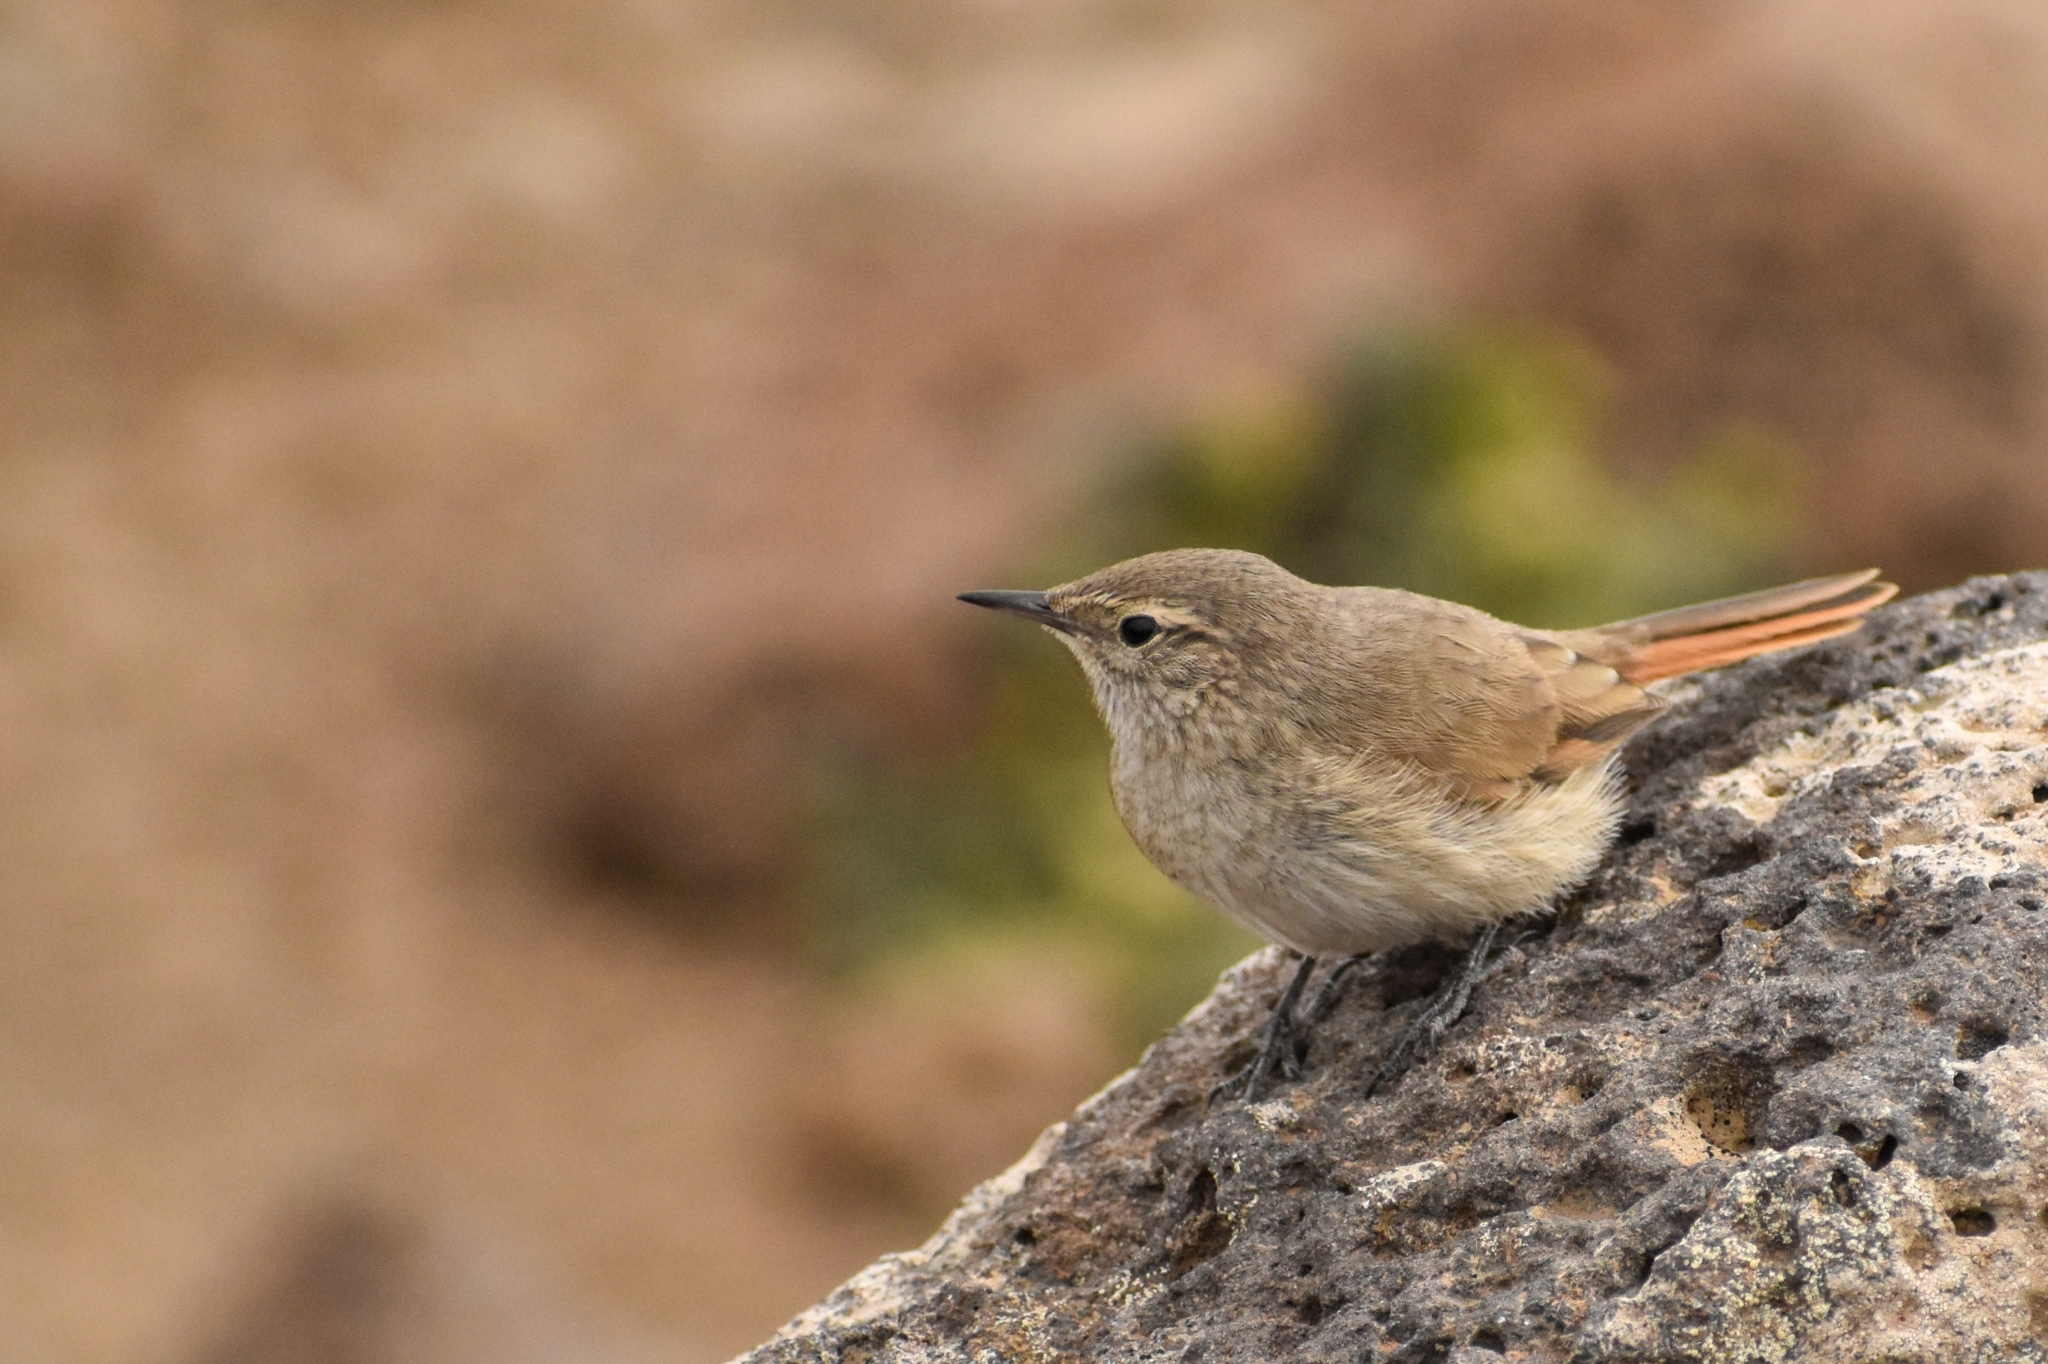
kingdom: Animalia
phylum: Chordata
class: Aves
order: Passeriformes
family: Furnariidae
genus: Asthenes
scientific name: Asthenes modesta
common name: Cordilleran canastero
